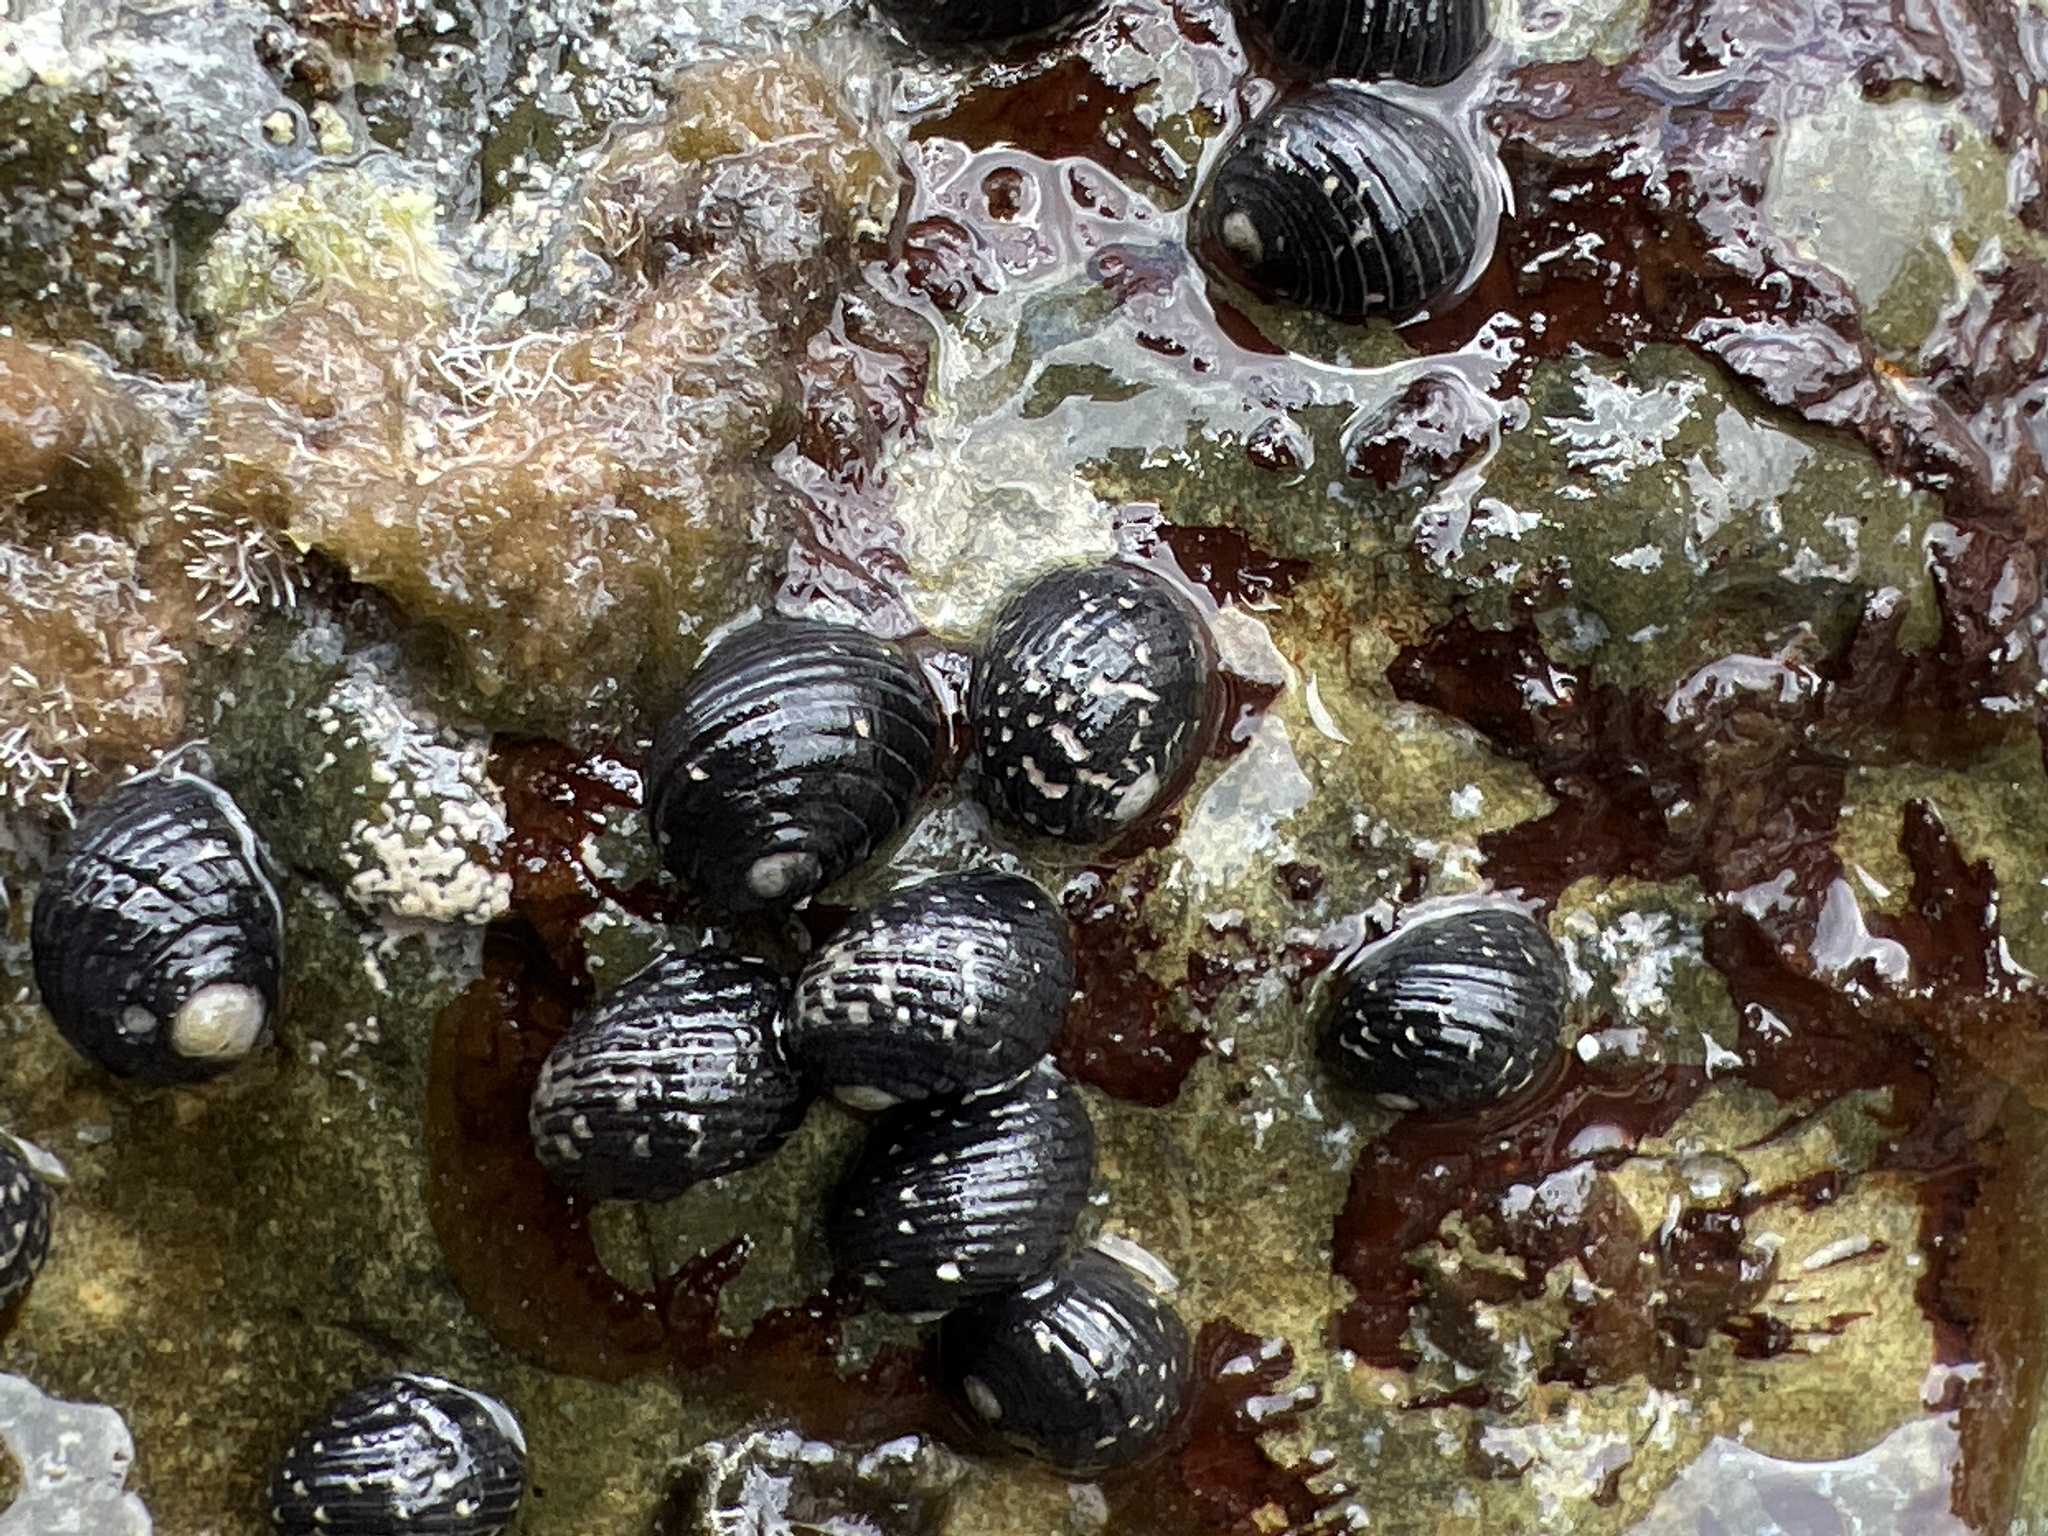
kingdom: Animalia
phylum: Mollusca
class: Gastropoda
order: Cycloneritida
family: Neritidae
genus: Nerita
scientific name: Nerita tessellata
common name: Checkered nerite
